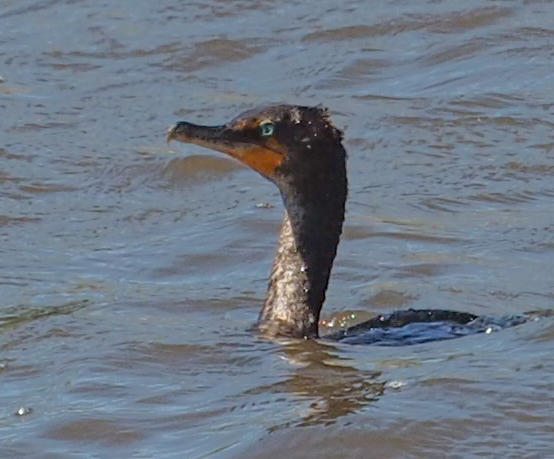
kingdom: Animalia
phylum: Chordata
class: Aves
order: Suliformes
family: Phalacrocoracidae
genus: Phalacrocorax
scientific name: Phalacrocorax auritus
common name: Double-crested cormorant
